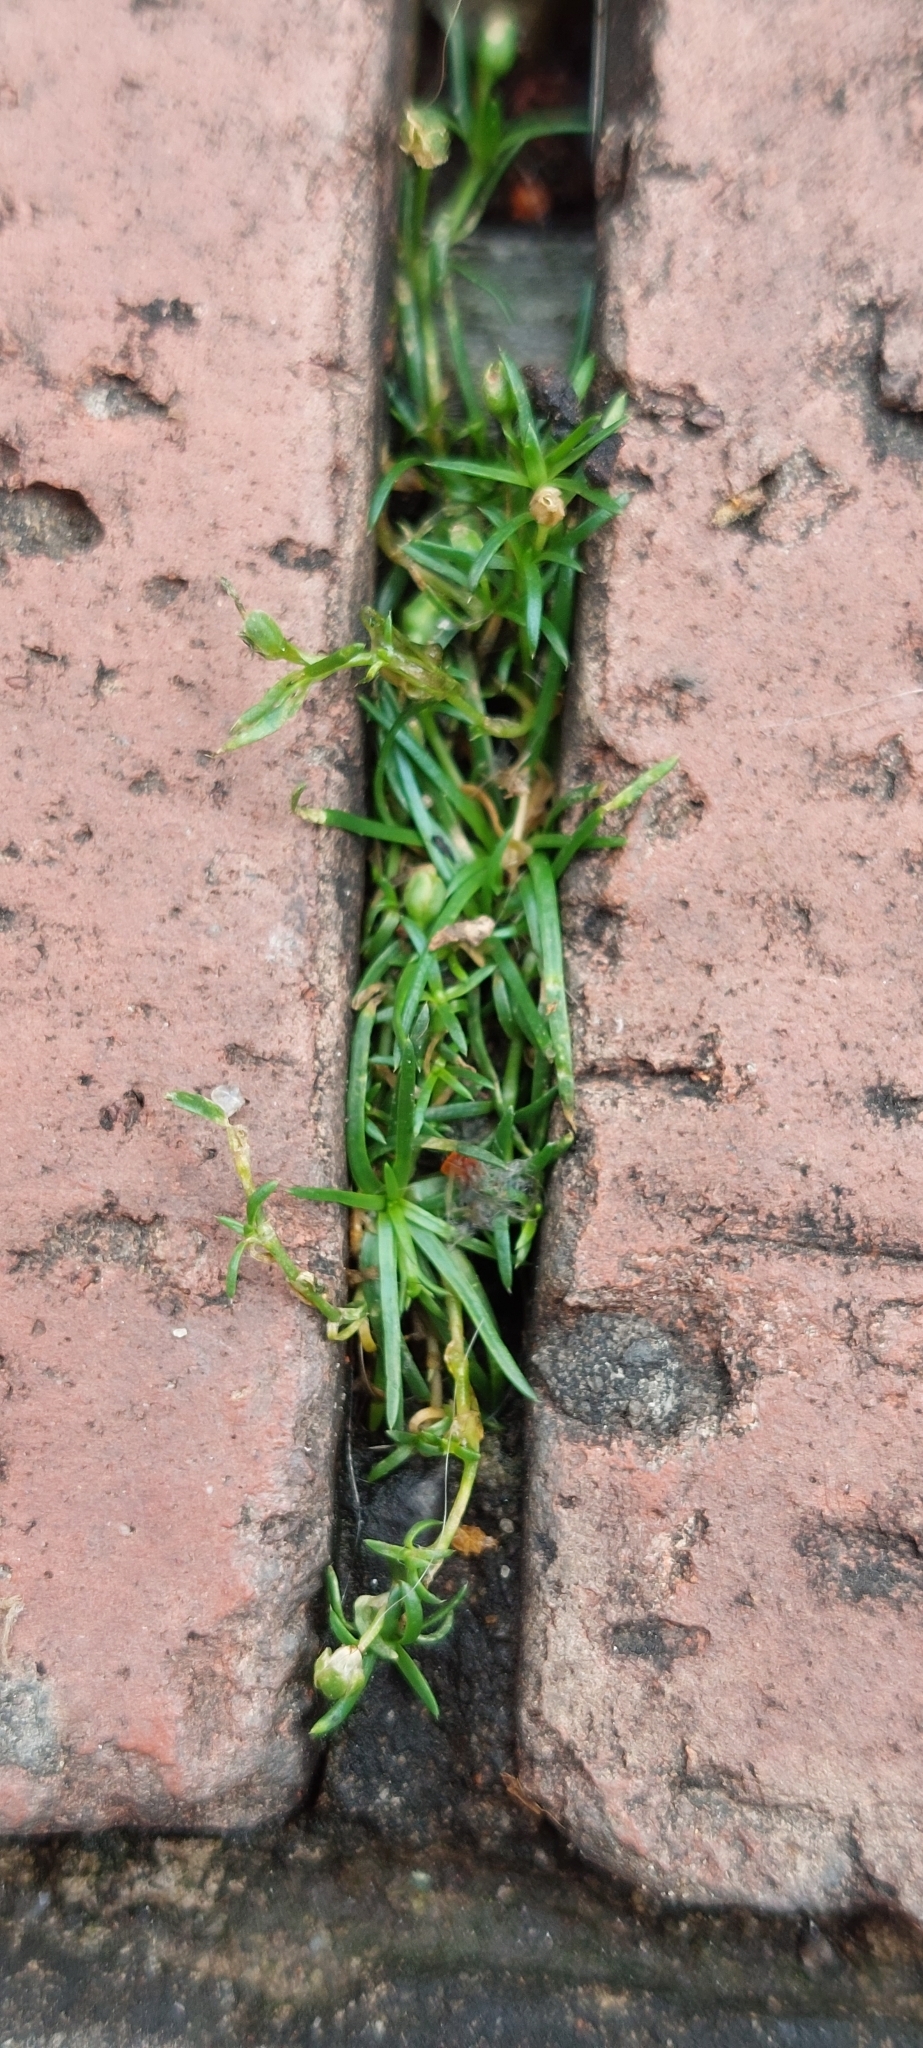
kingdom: Plantae
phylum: Tracheophyta
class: Magnoliopsida
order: Caryophyllales
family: Caryophyllaceae
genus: Sagina
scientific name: Sagina procumbens
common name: Procumbent pearlwort
